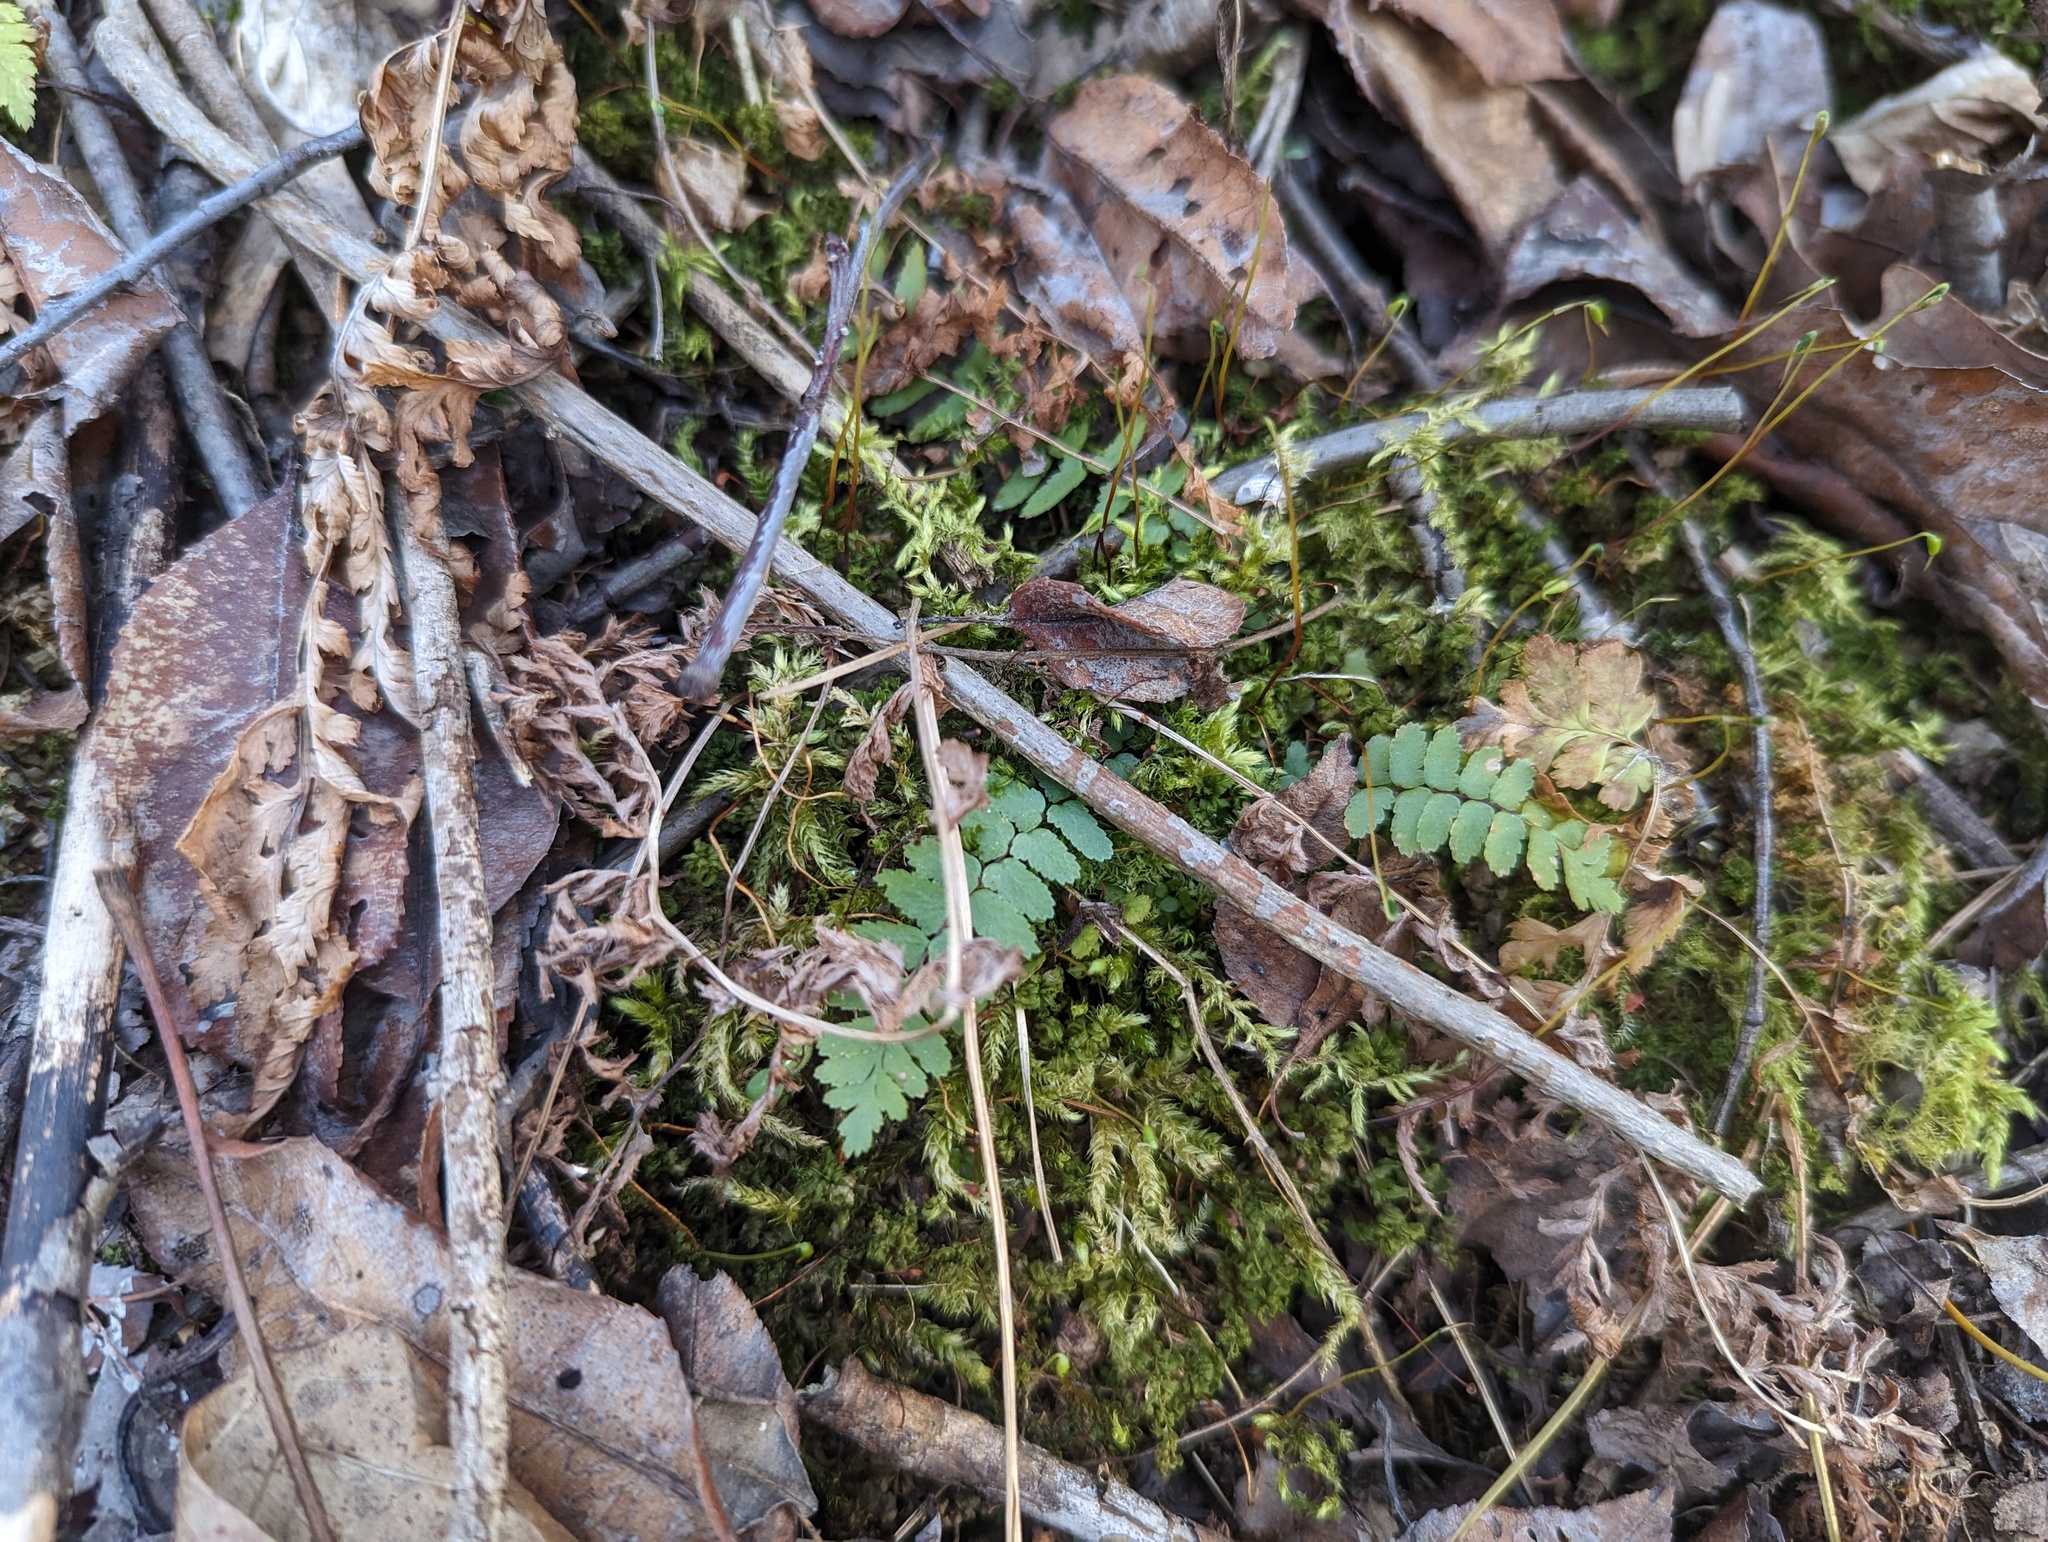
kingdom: Plantae
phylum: Tracheophyta
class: Polypodiopsida
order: Polypodiales
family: Aspleniaceae
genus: Asplenium
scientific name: Asplenium platyneuron
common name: Ebony spleenwort
